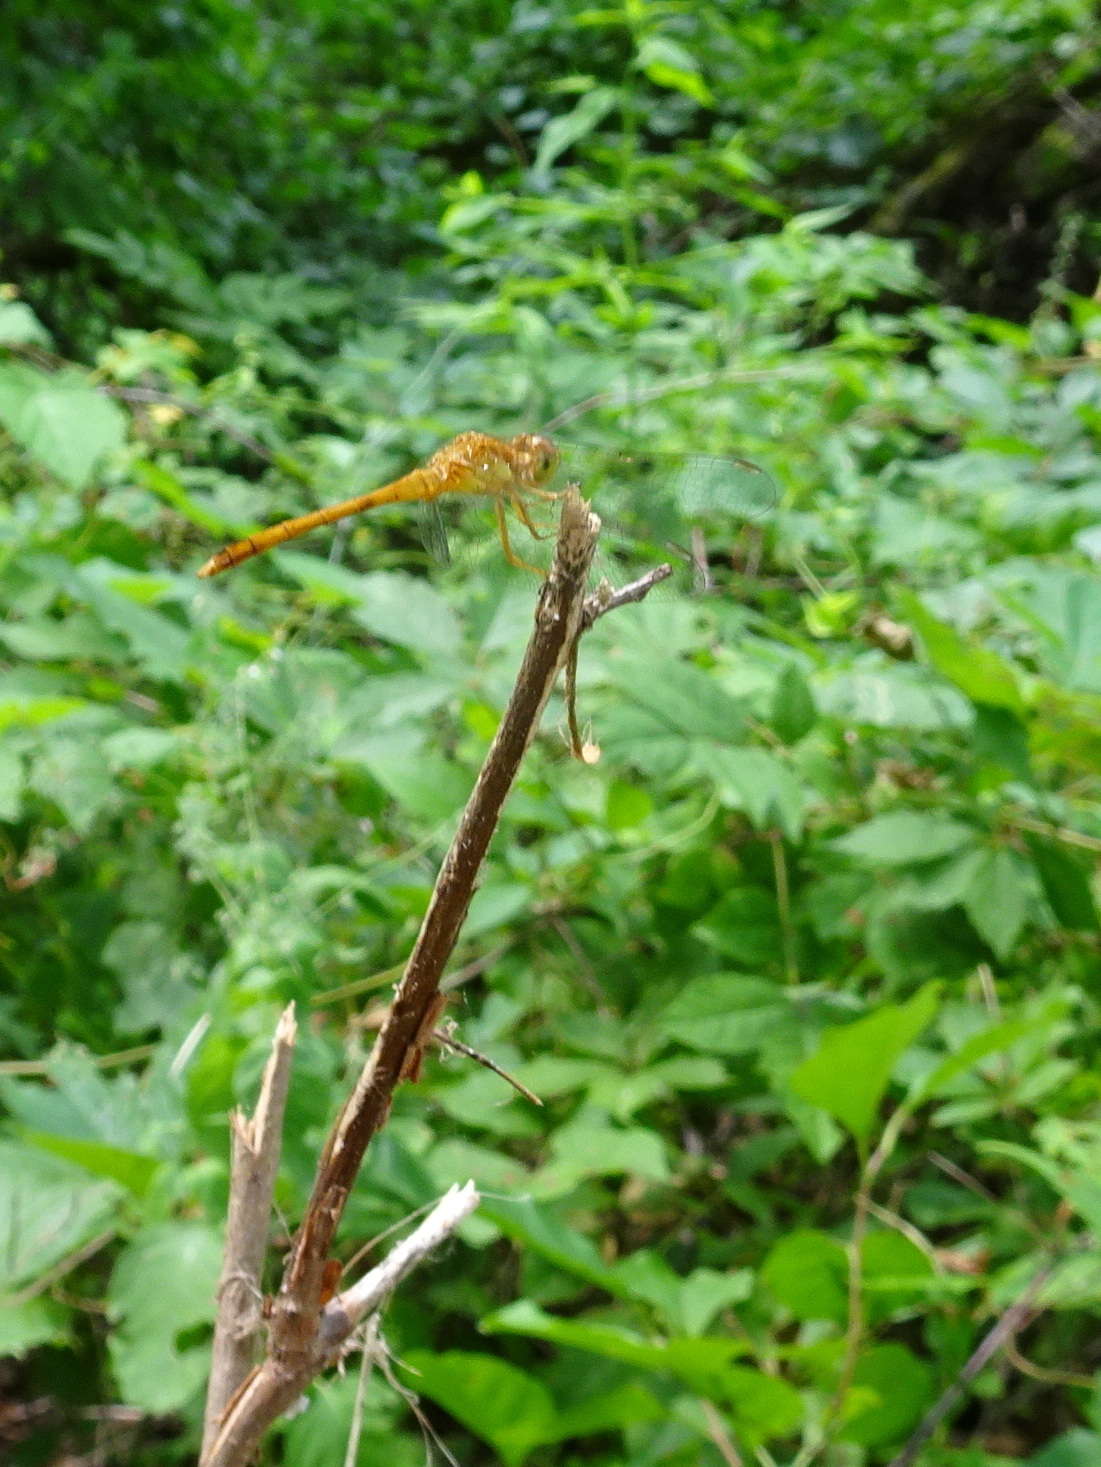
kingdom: Animalia
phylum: Arthropoda
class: Insecta
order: Odonata
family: Libellulidae
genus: Sympetrum
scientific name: Sympetrum vicinum
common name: Autumn meadowhawk
